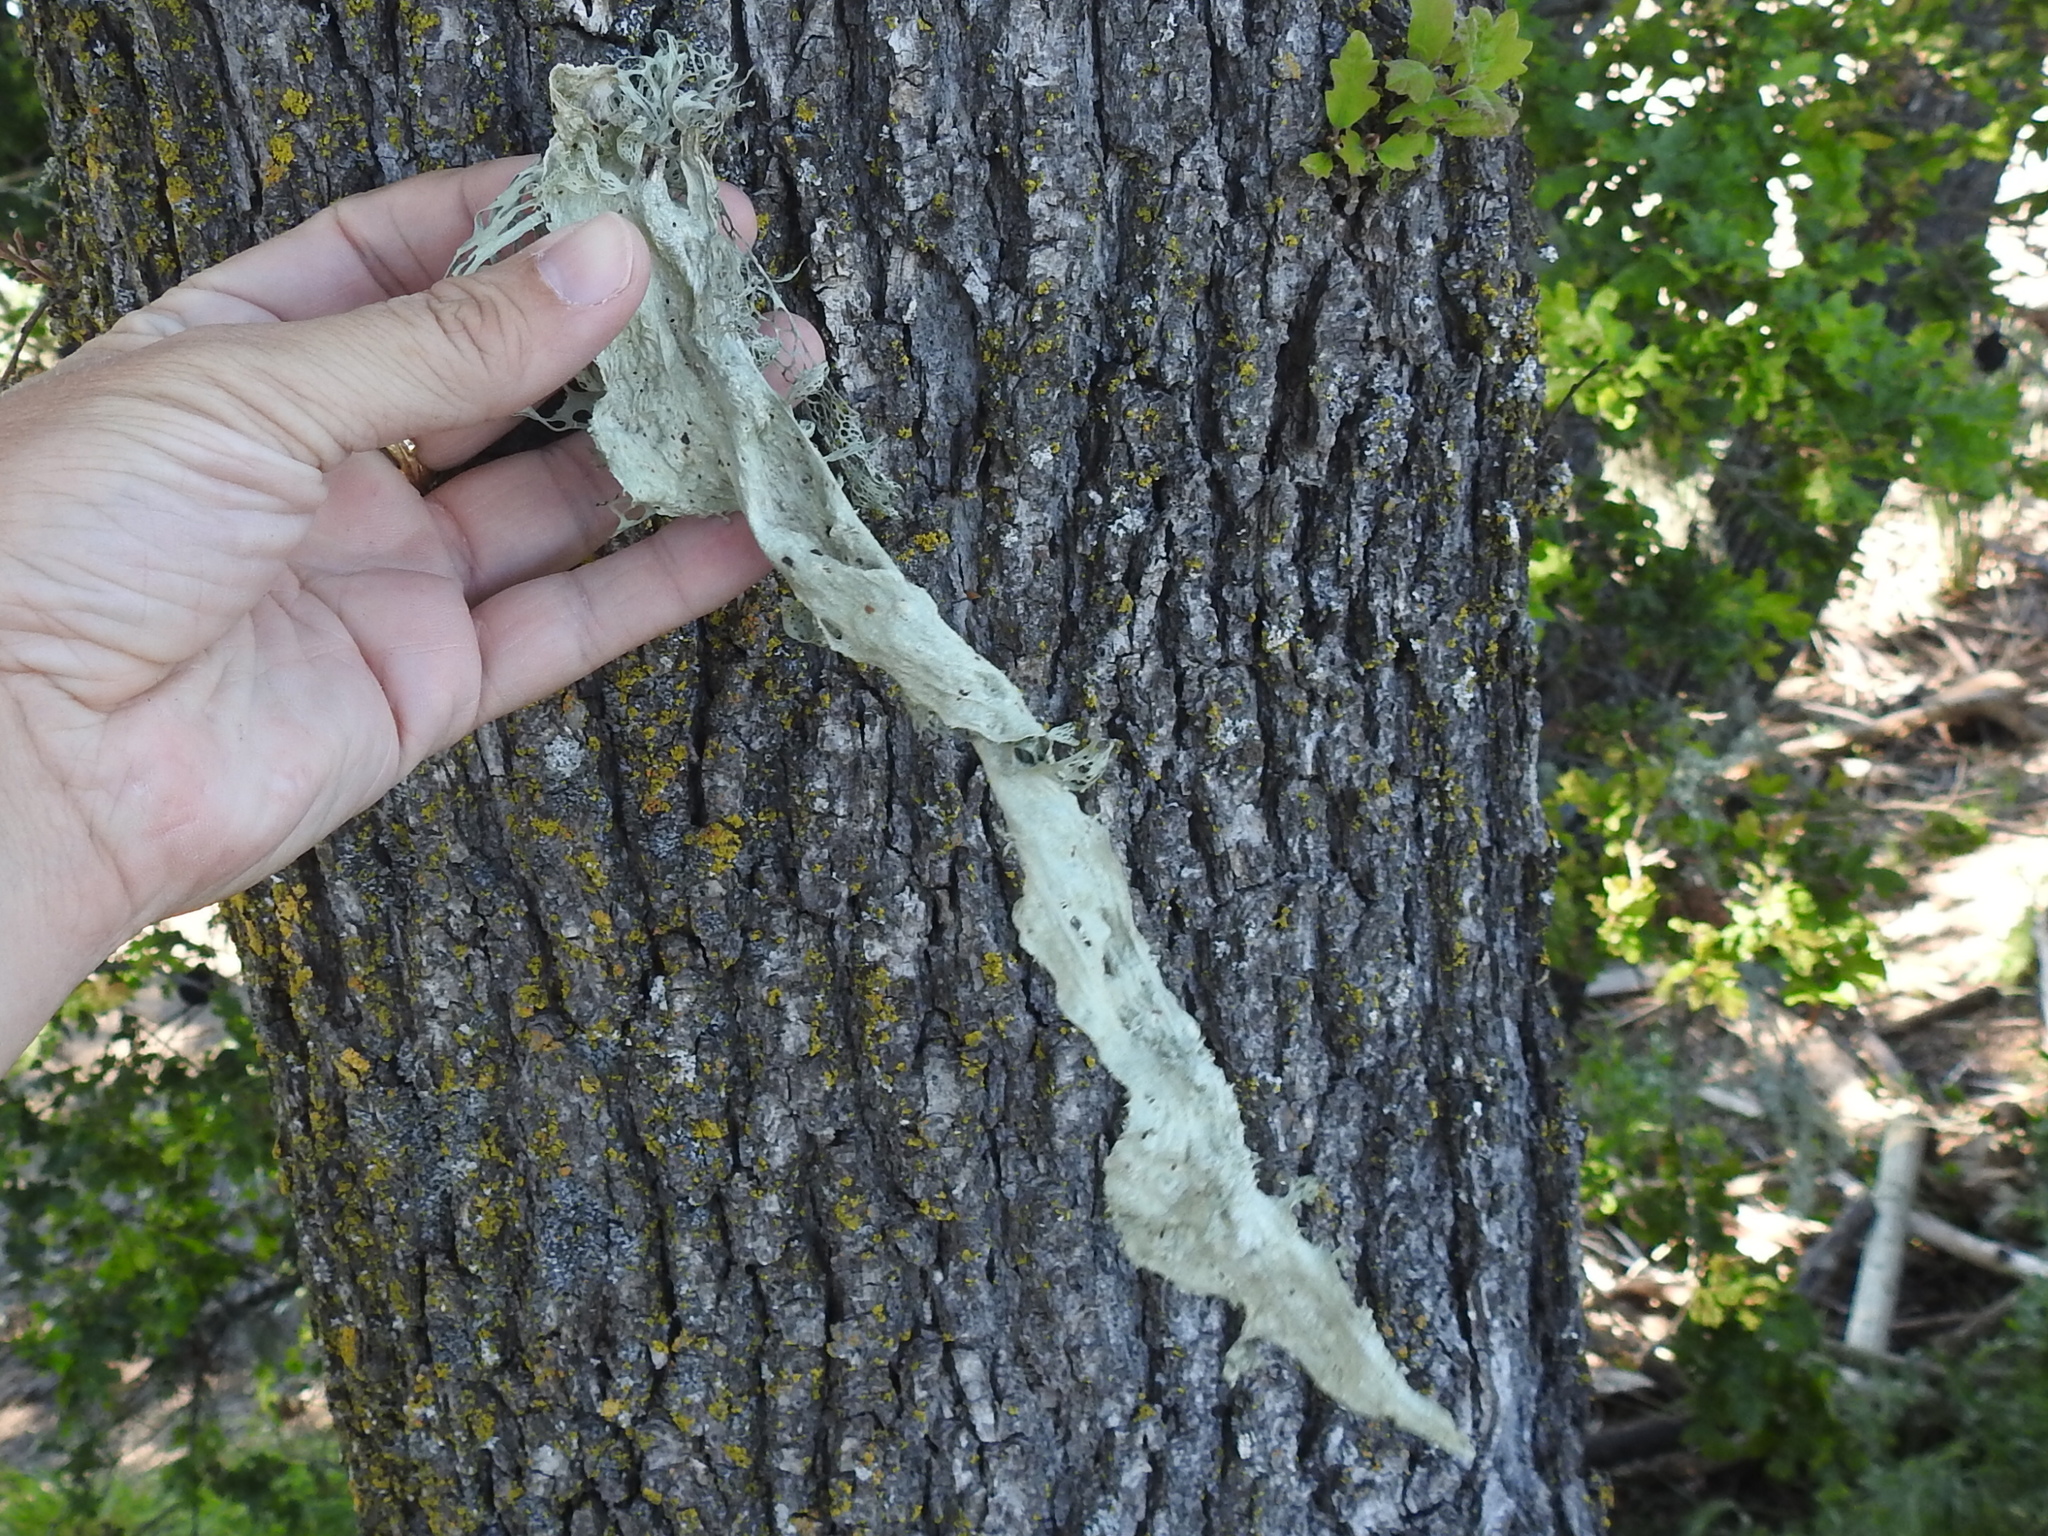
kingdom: Fungi
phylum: Ascomycota
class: Lecanoromycetes
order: Lecanorales
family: Ramalinaceae
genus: Ramalina
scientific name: Ramalina menziesii
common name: Lace lichen
